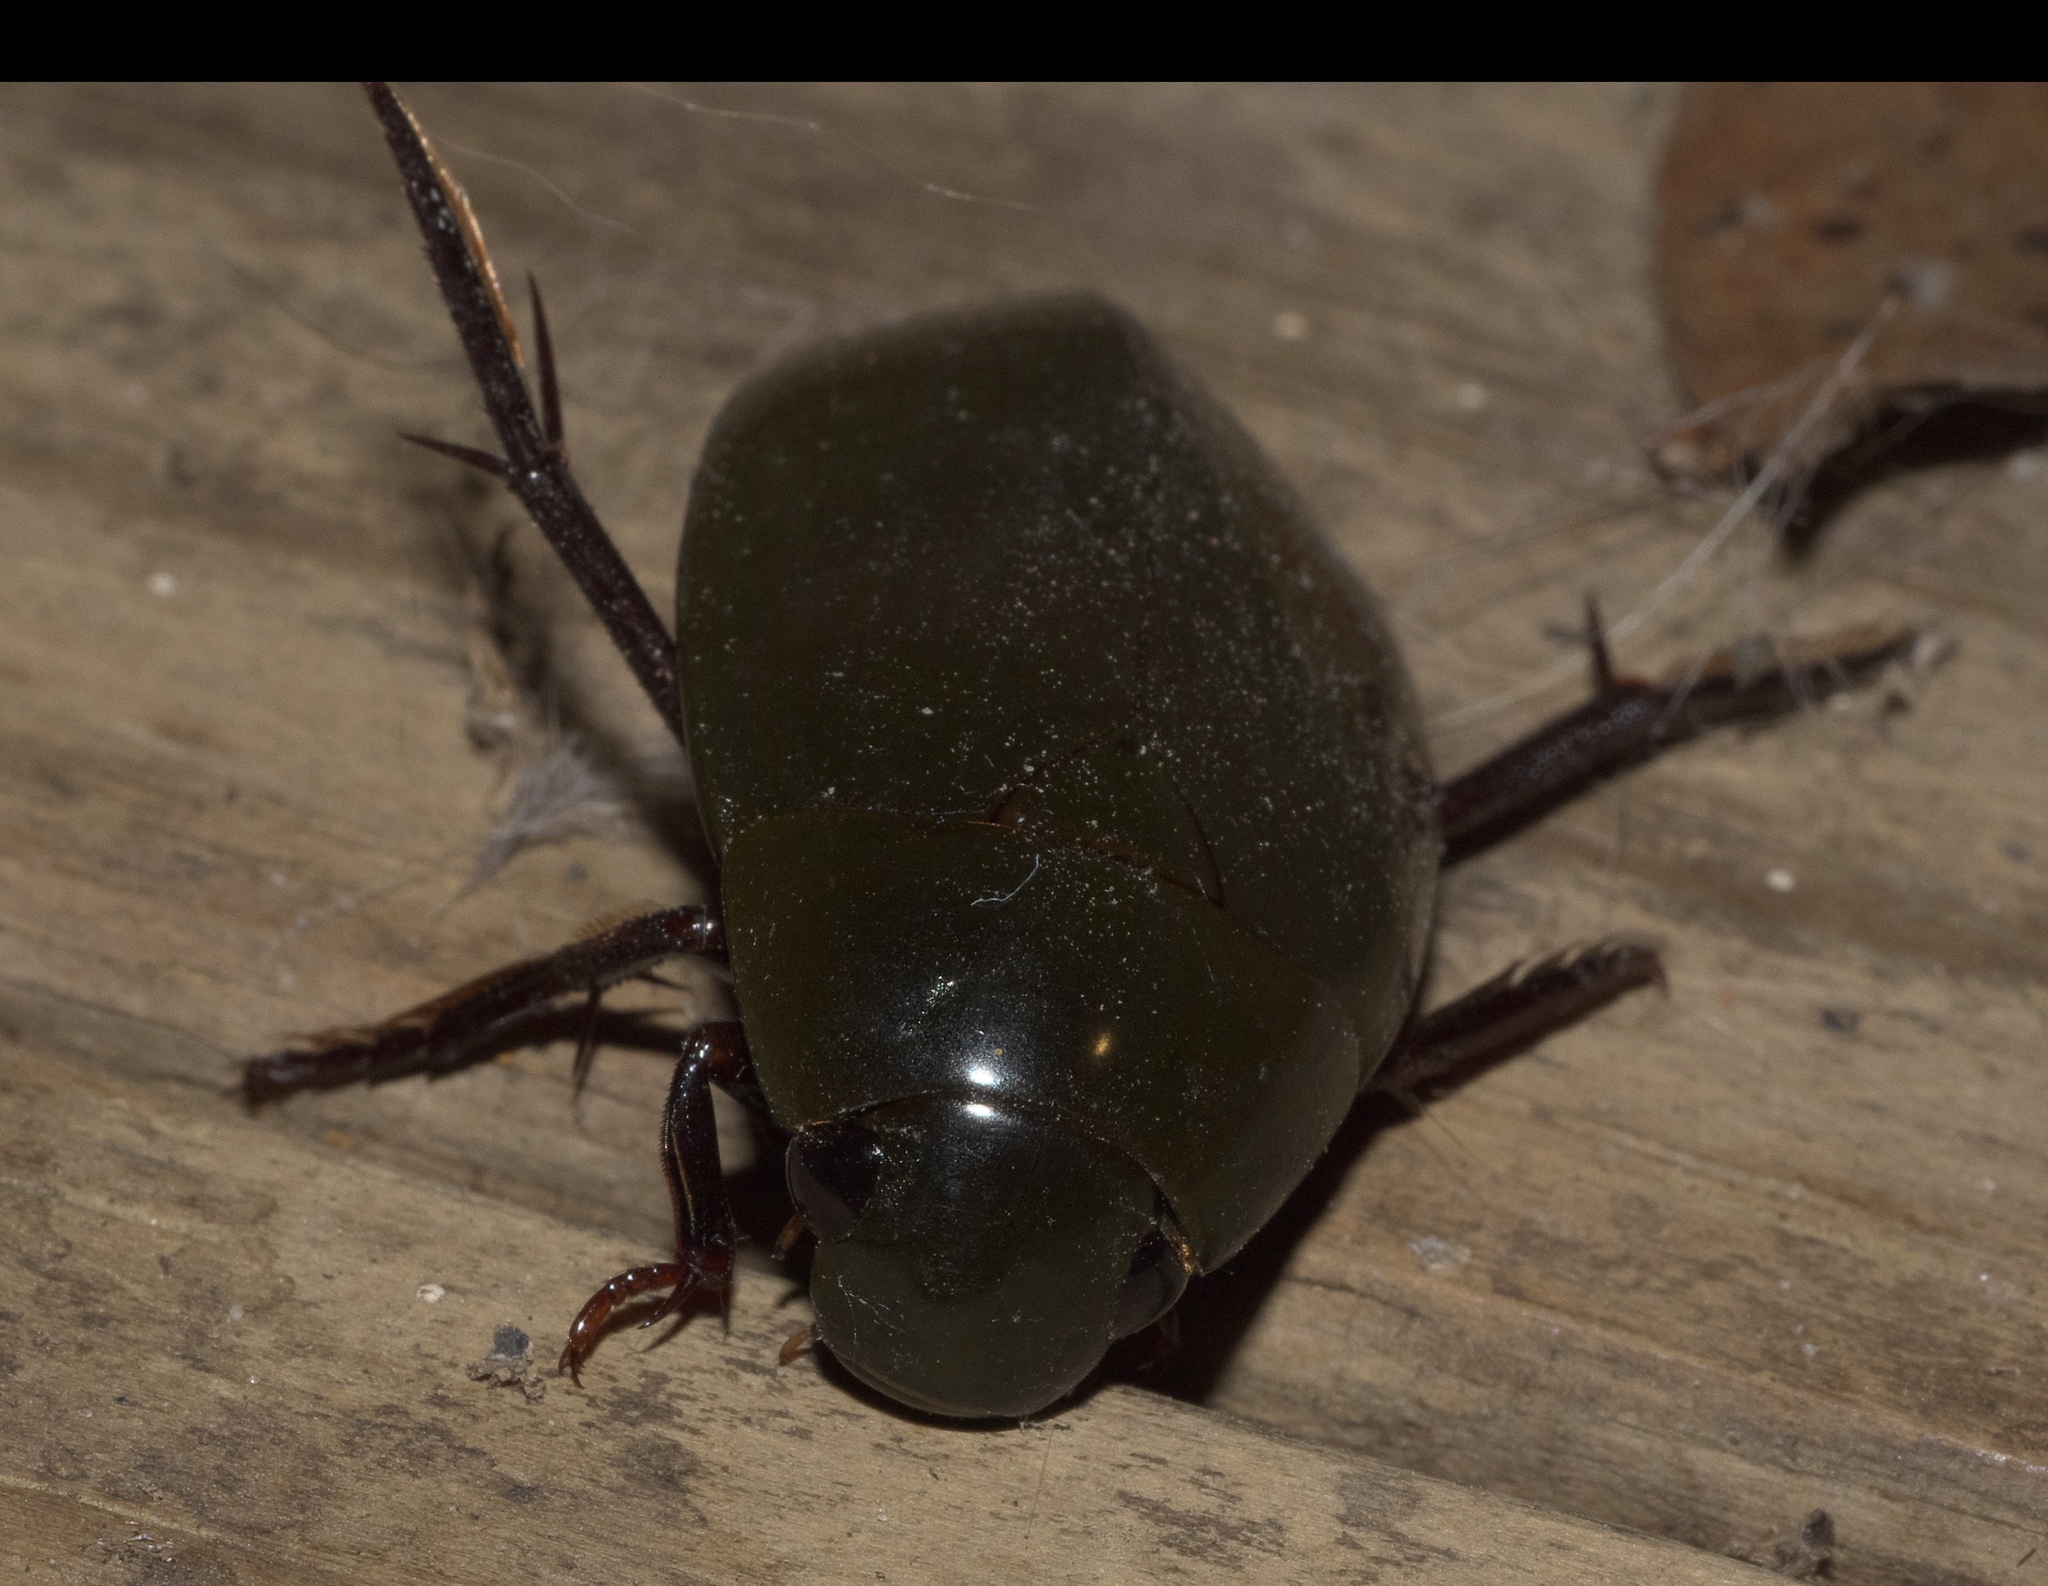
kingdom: Animalia
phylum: Arthropoda
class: Insecta
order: Coleoptera
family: Hydrophilidae
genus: Hydrophilus
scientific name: Hydrophilus triangularis
